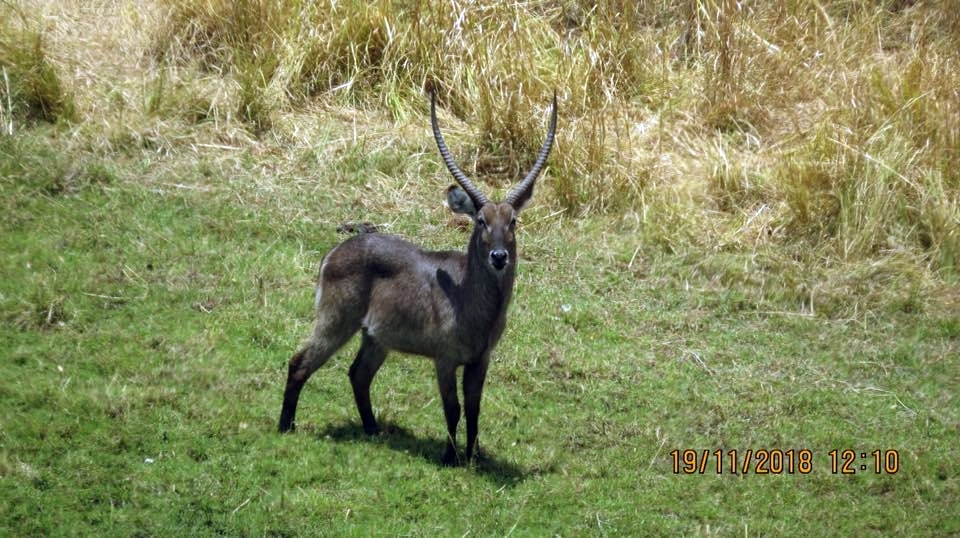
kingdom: Animalia
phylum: Chordata
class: Mammalia
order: Artiodactyla
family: Bovidae
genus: Kobus
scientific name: Kobus ellipsiprymnus
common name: Waterbuck
